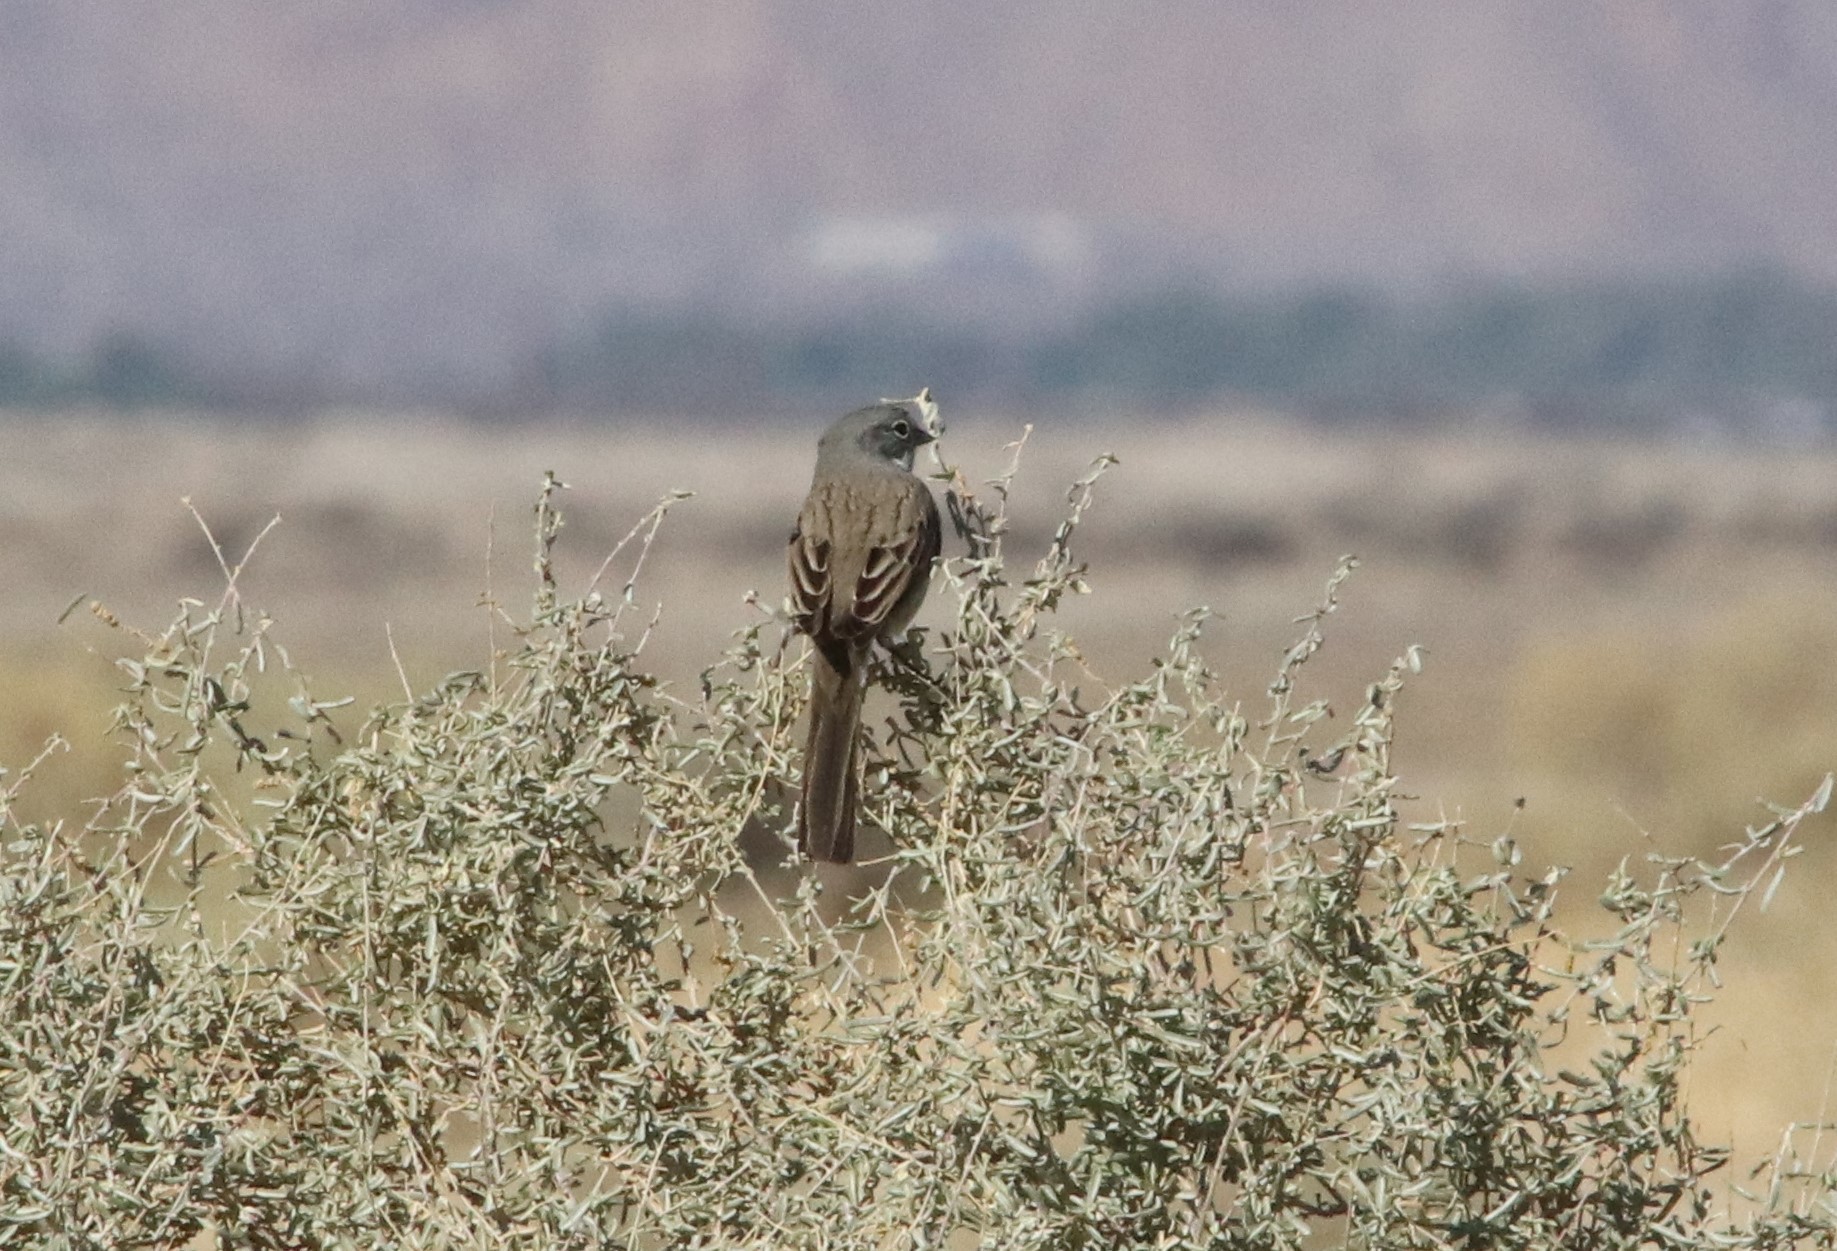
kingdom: Animalia
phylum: Chordata
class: Aves
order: Passeriformes
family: Passerellidae
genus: Artemisiospiza
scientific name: Artemisiospiza nevadensis
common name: Sagebrush sparrow
